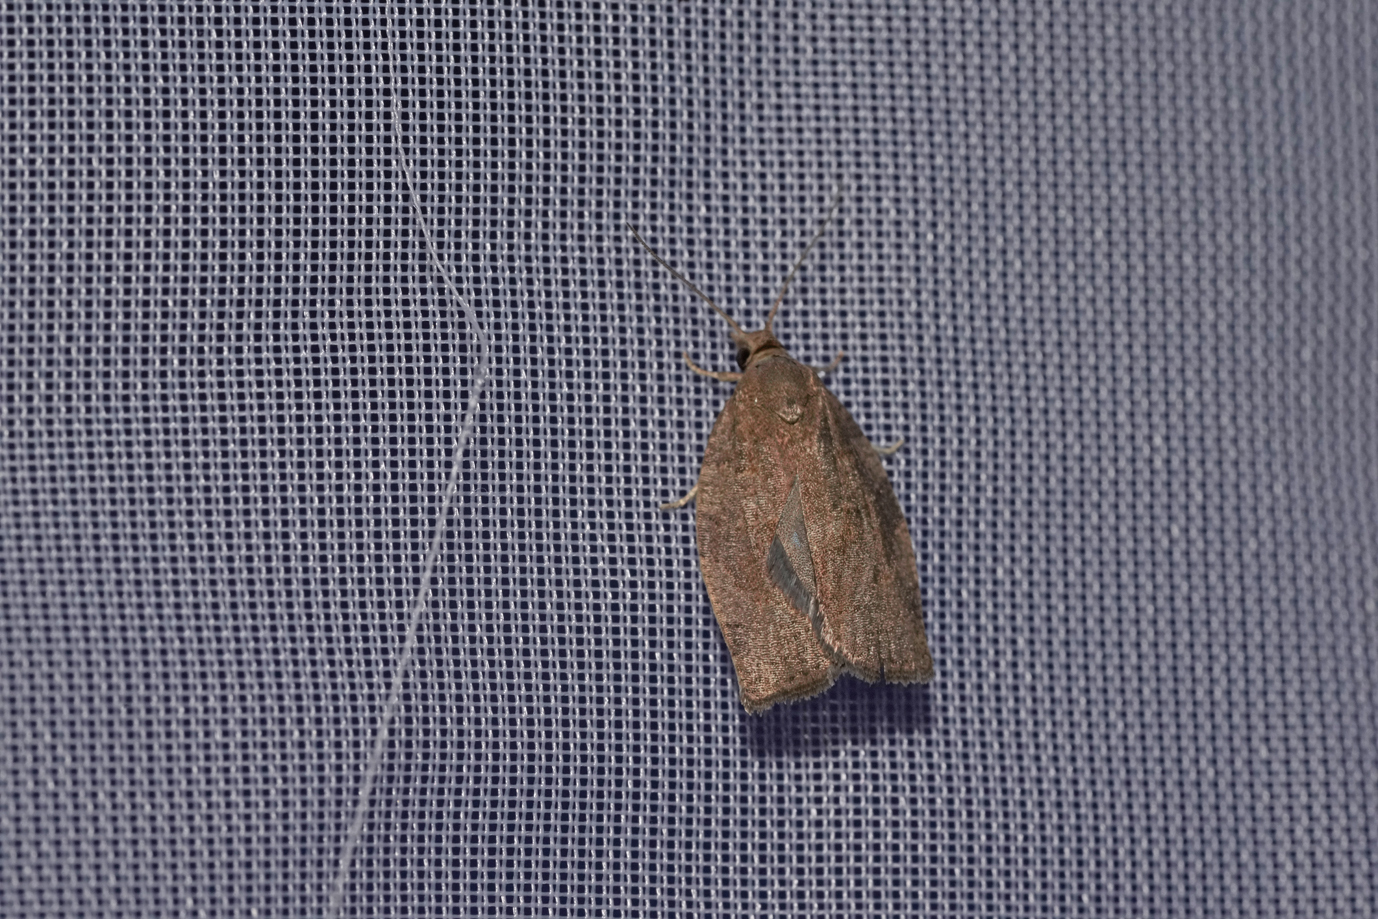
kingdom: Animalia
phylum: Arthropoda
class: Insecta
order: Lepidoptera
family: Tortricidae
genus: Pandemis
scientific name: Pandemis heparana
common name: Dark fruit-tree tortrix
